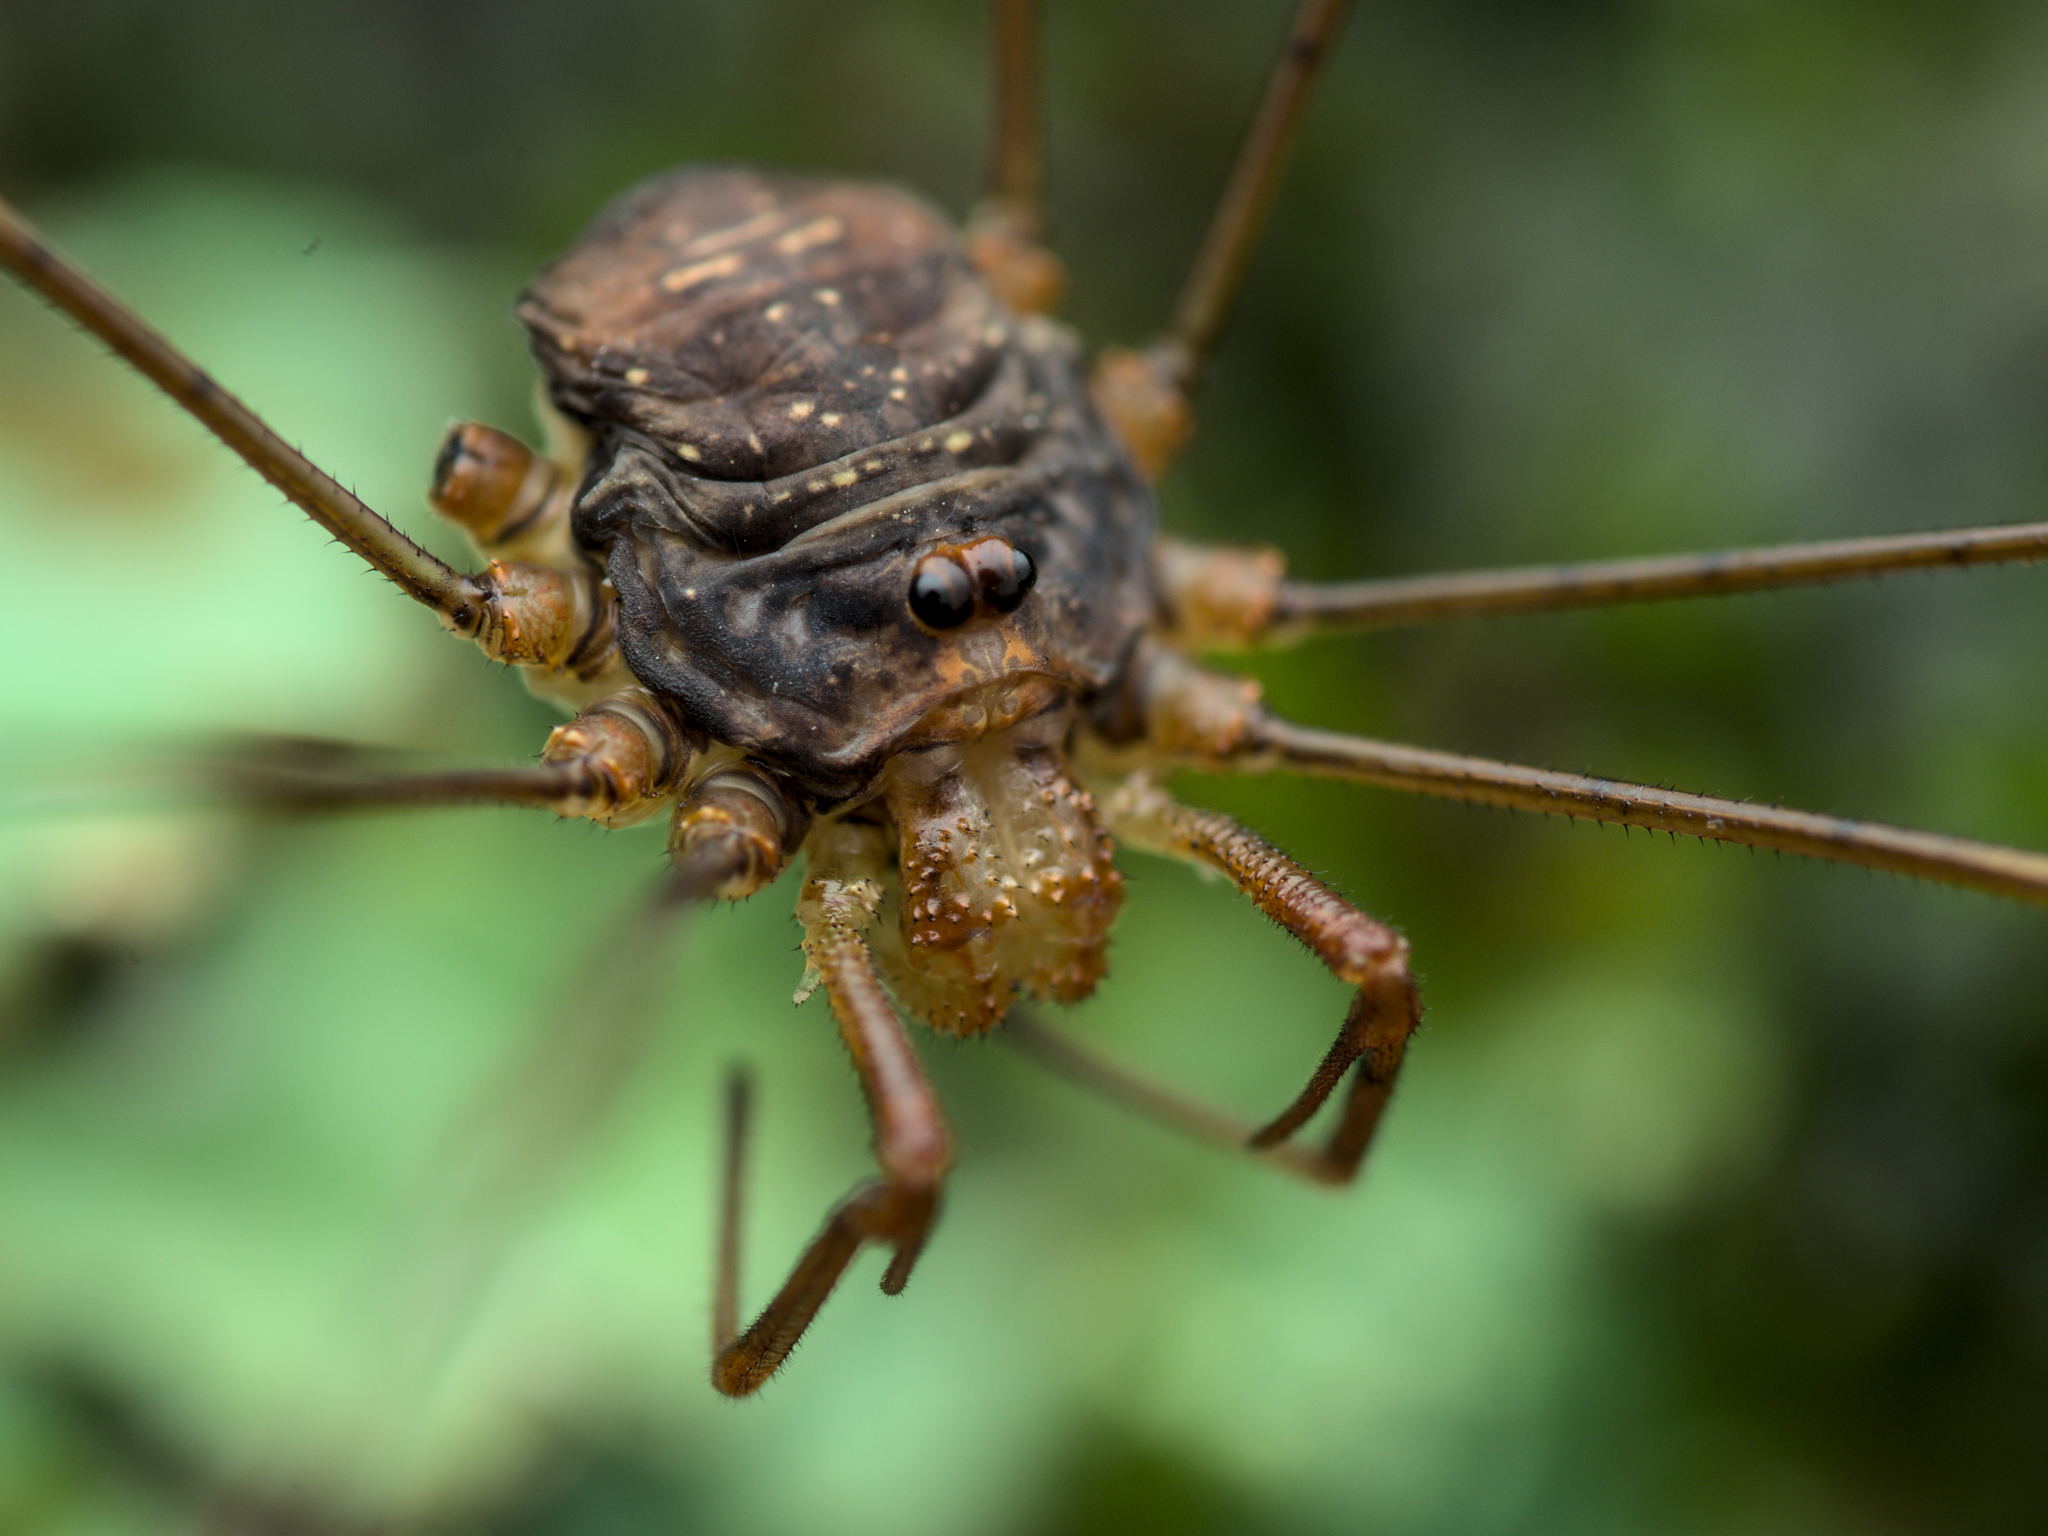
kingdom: Animalia
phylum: Arthropoda
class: Arachnida
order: Opiliones
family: Phalangiidae
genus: Dicranopalpus
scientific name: Dicranopalpus ramosus
